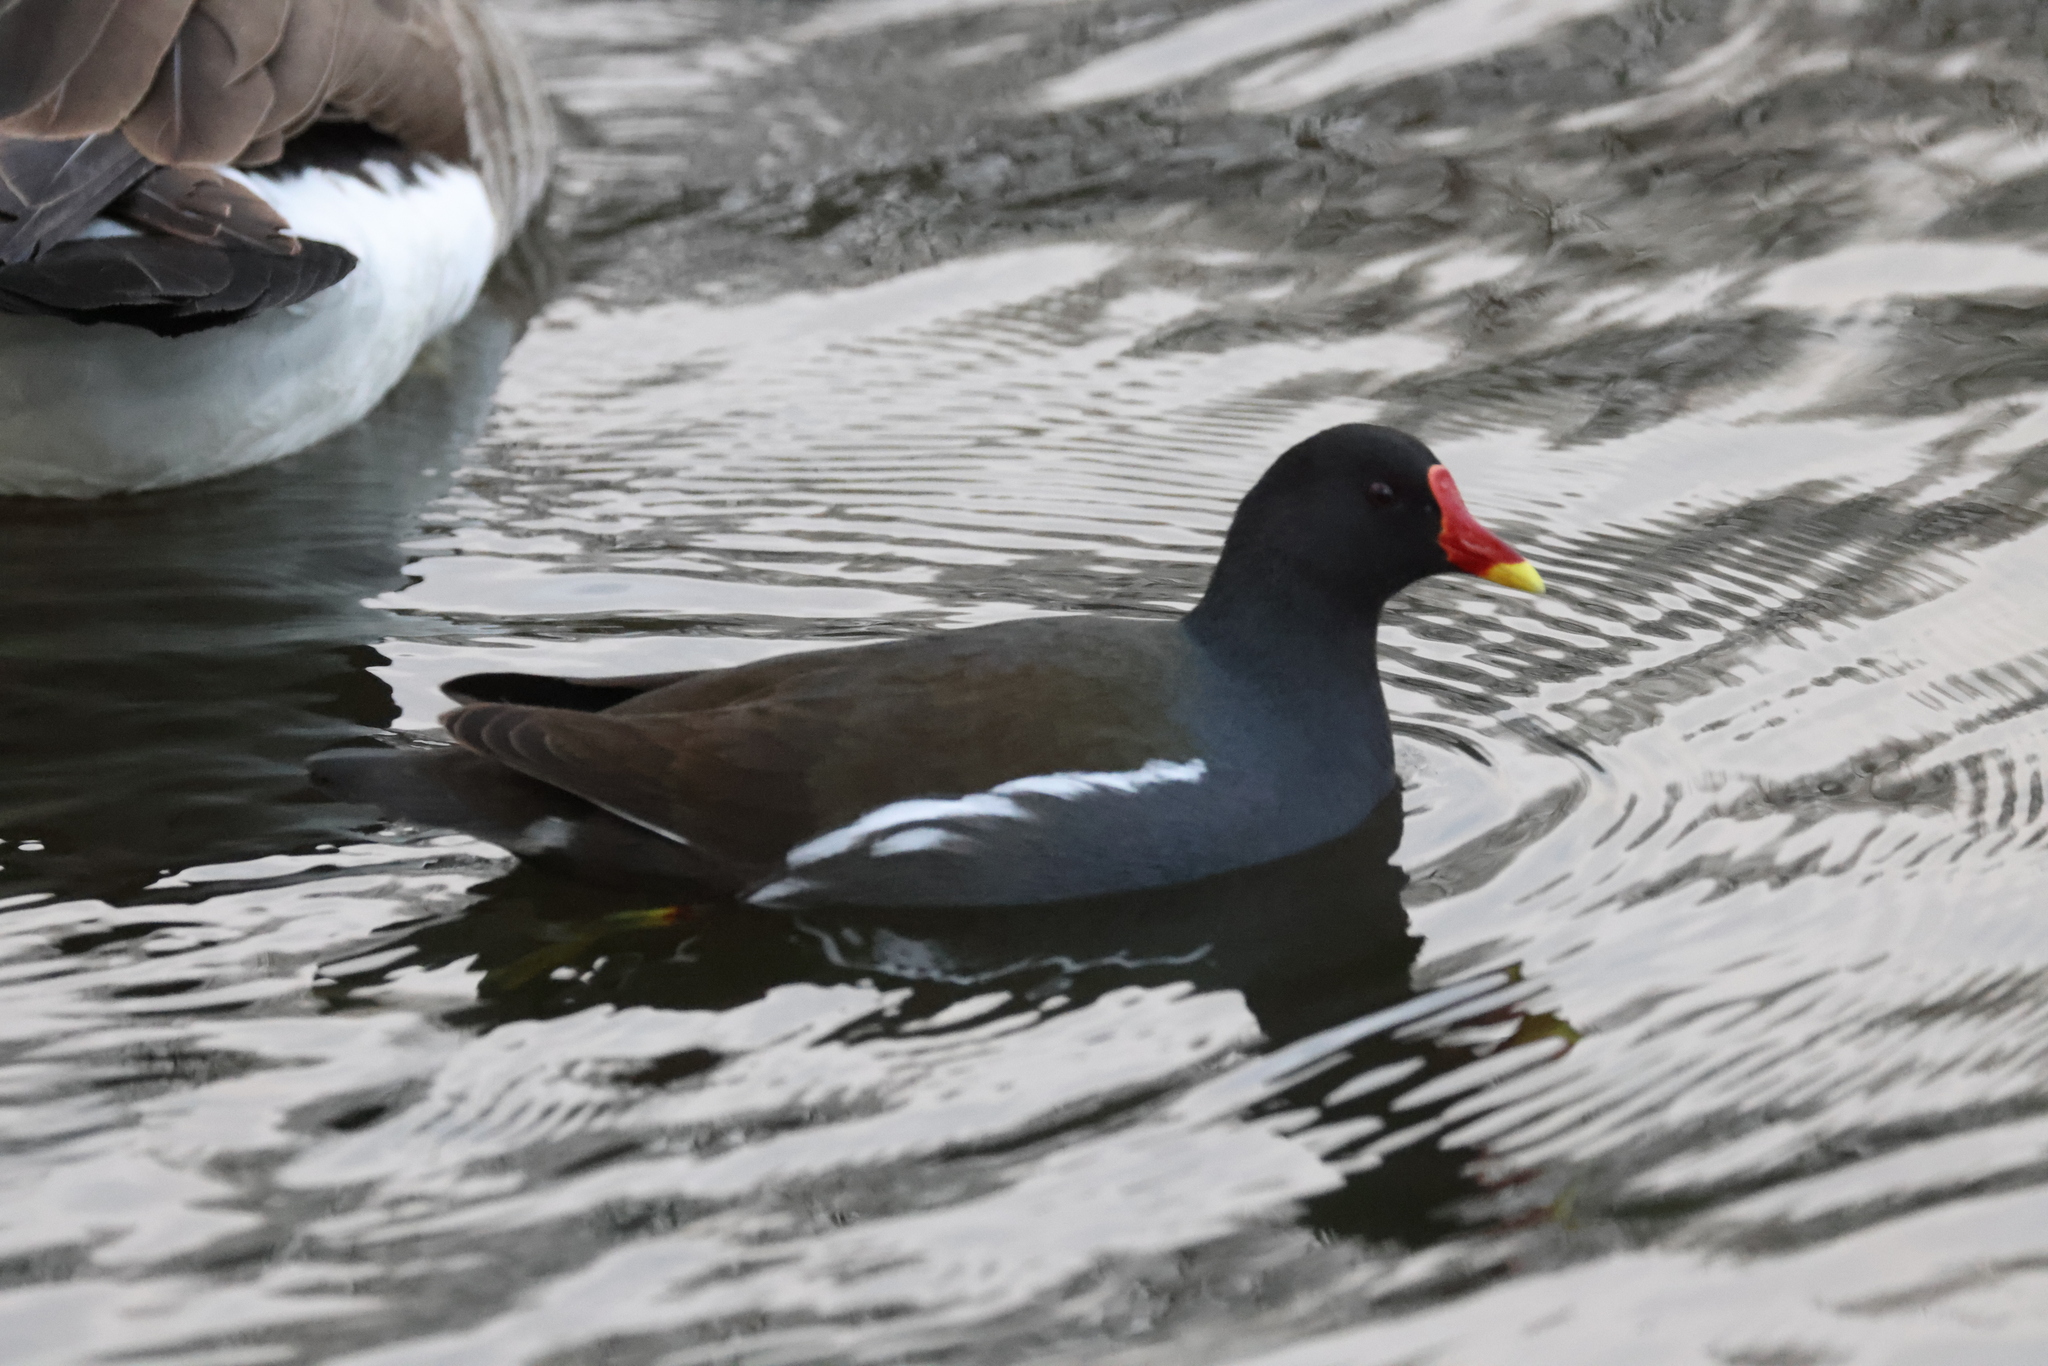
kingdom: Animalia
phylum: Chordata
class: Aves
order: Gruiformes
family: Rallidae
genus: Gallinula
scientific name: Gallinula chloropus
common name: Common moorhen
